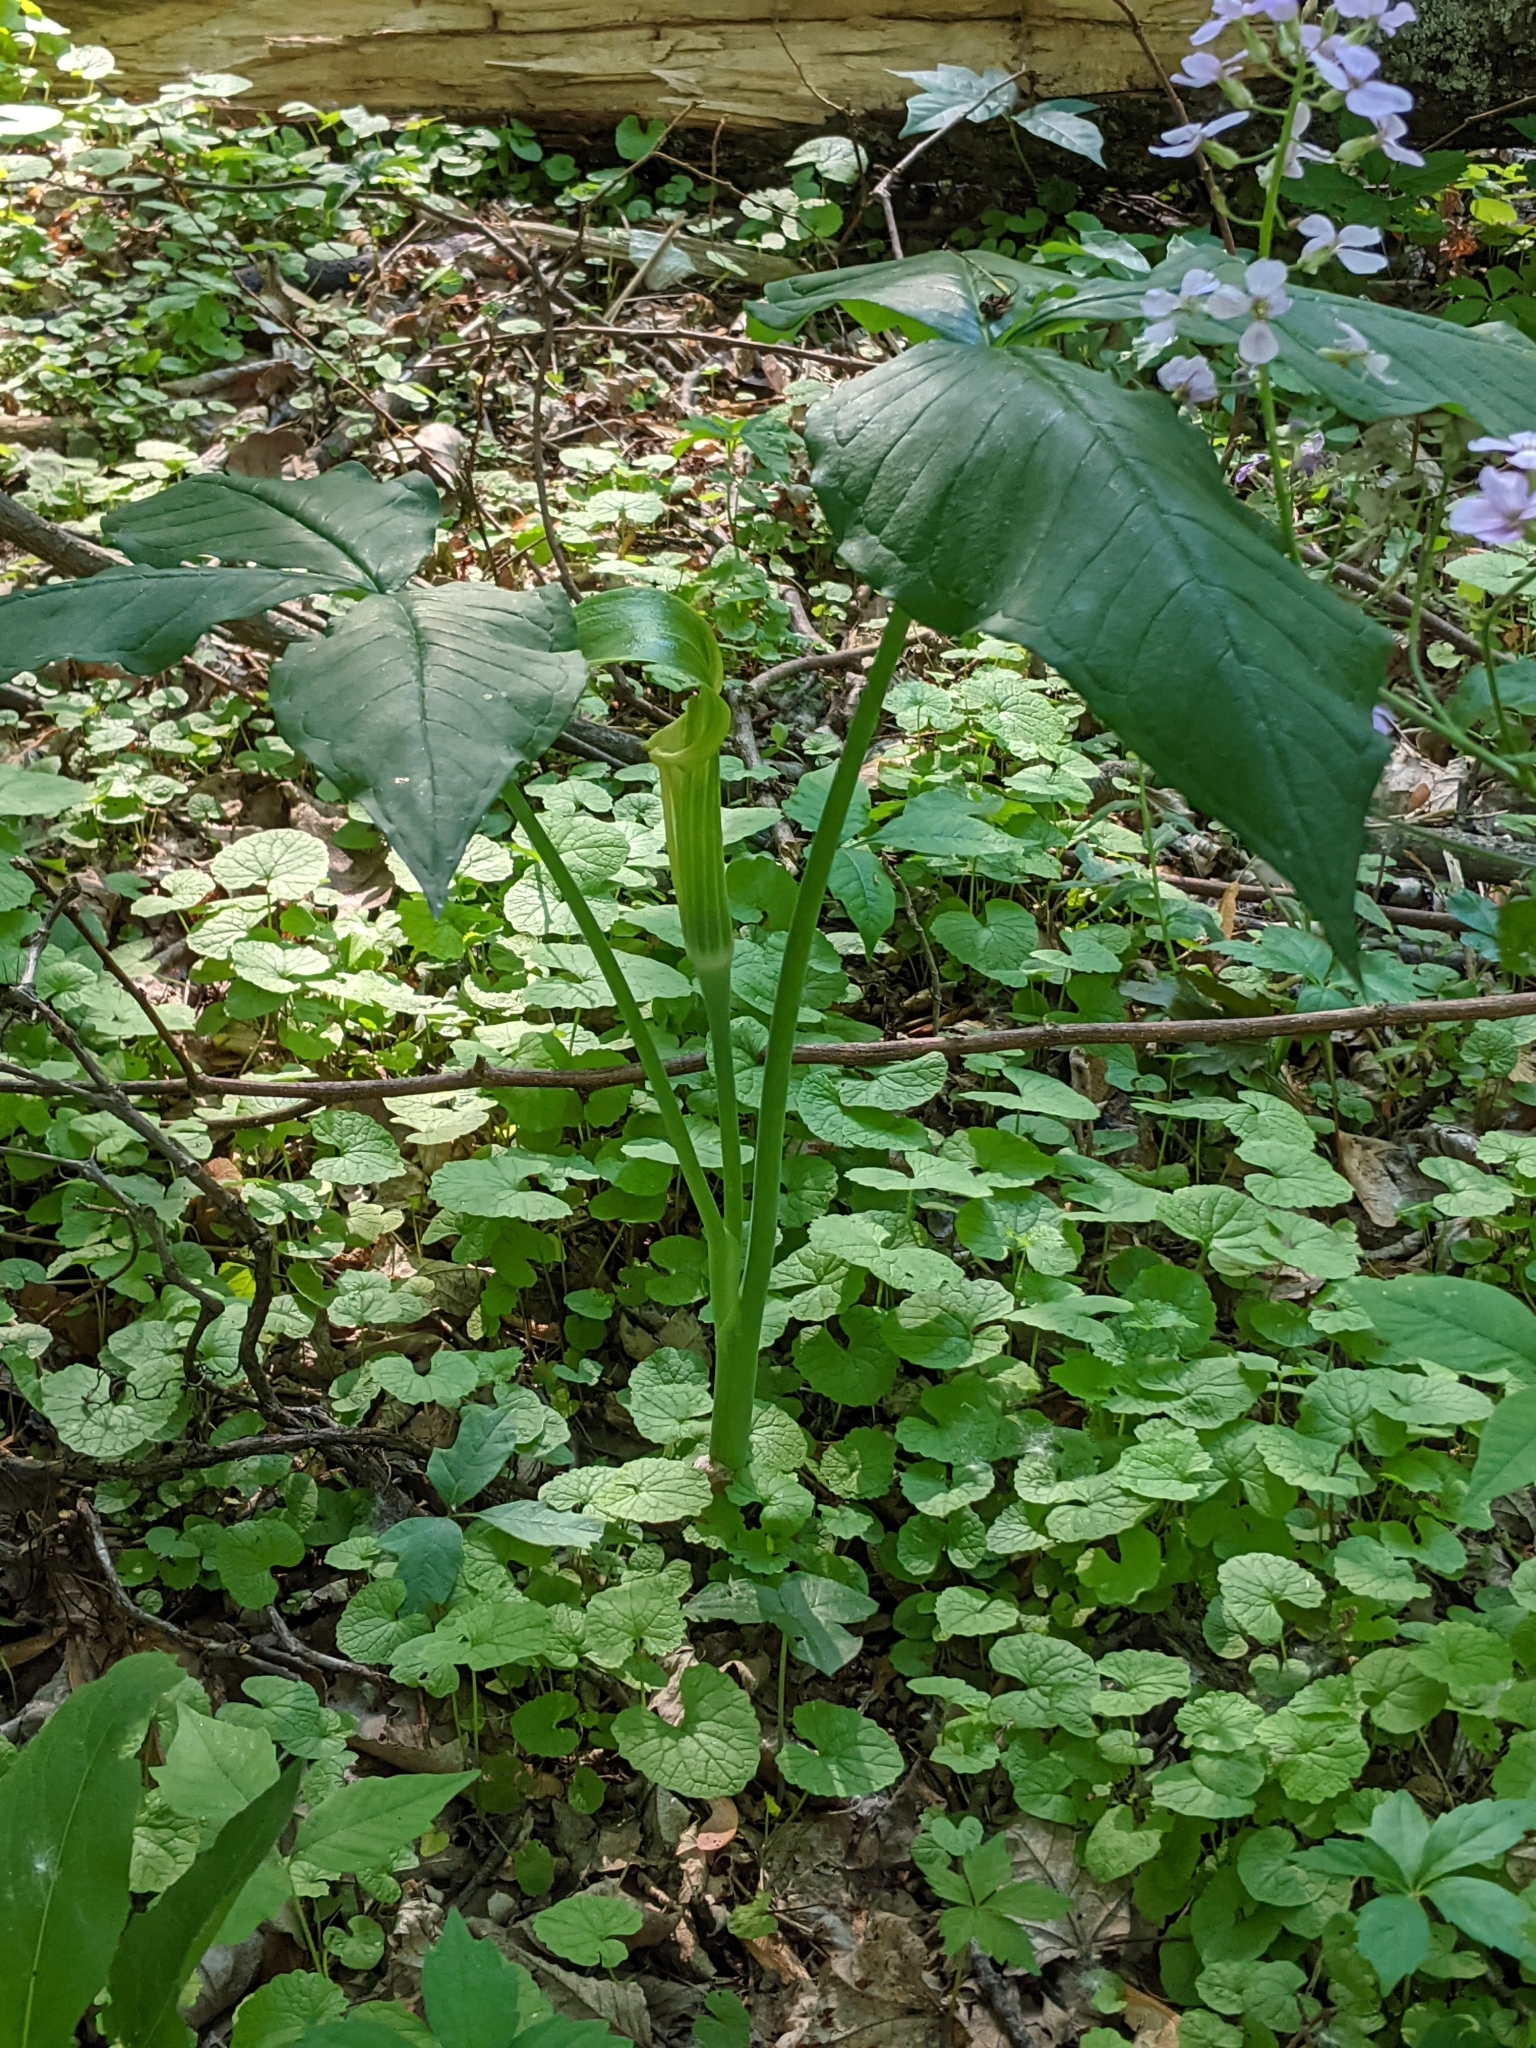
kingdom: Plantae
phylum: Tracheophyta
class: Liliopsida
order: Alismatales
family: Araceae
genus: Arisaema
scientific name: Arisaema triphyllum
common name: Jack-in-the-pulpit
